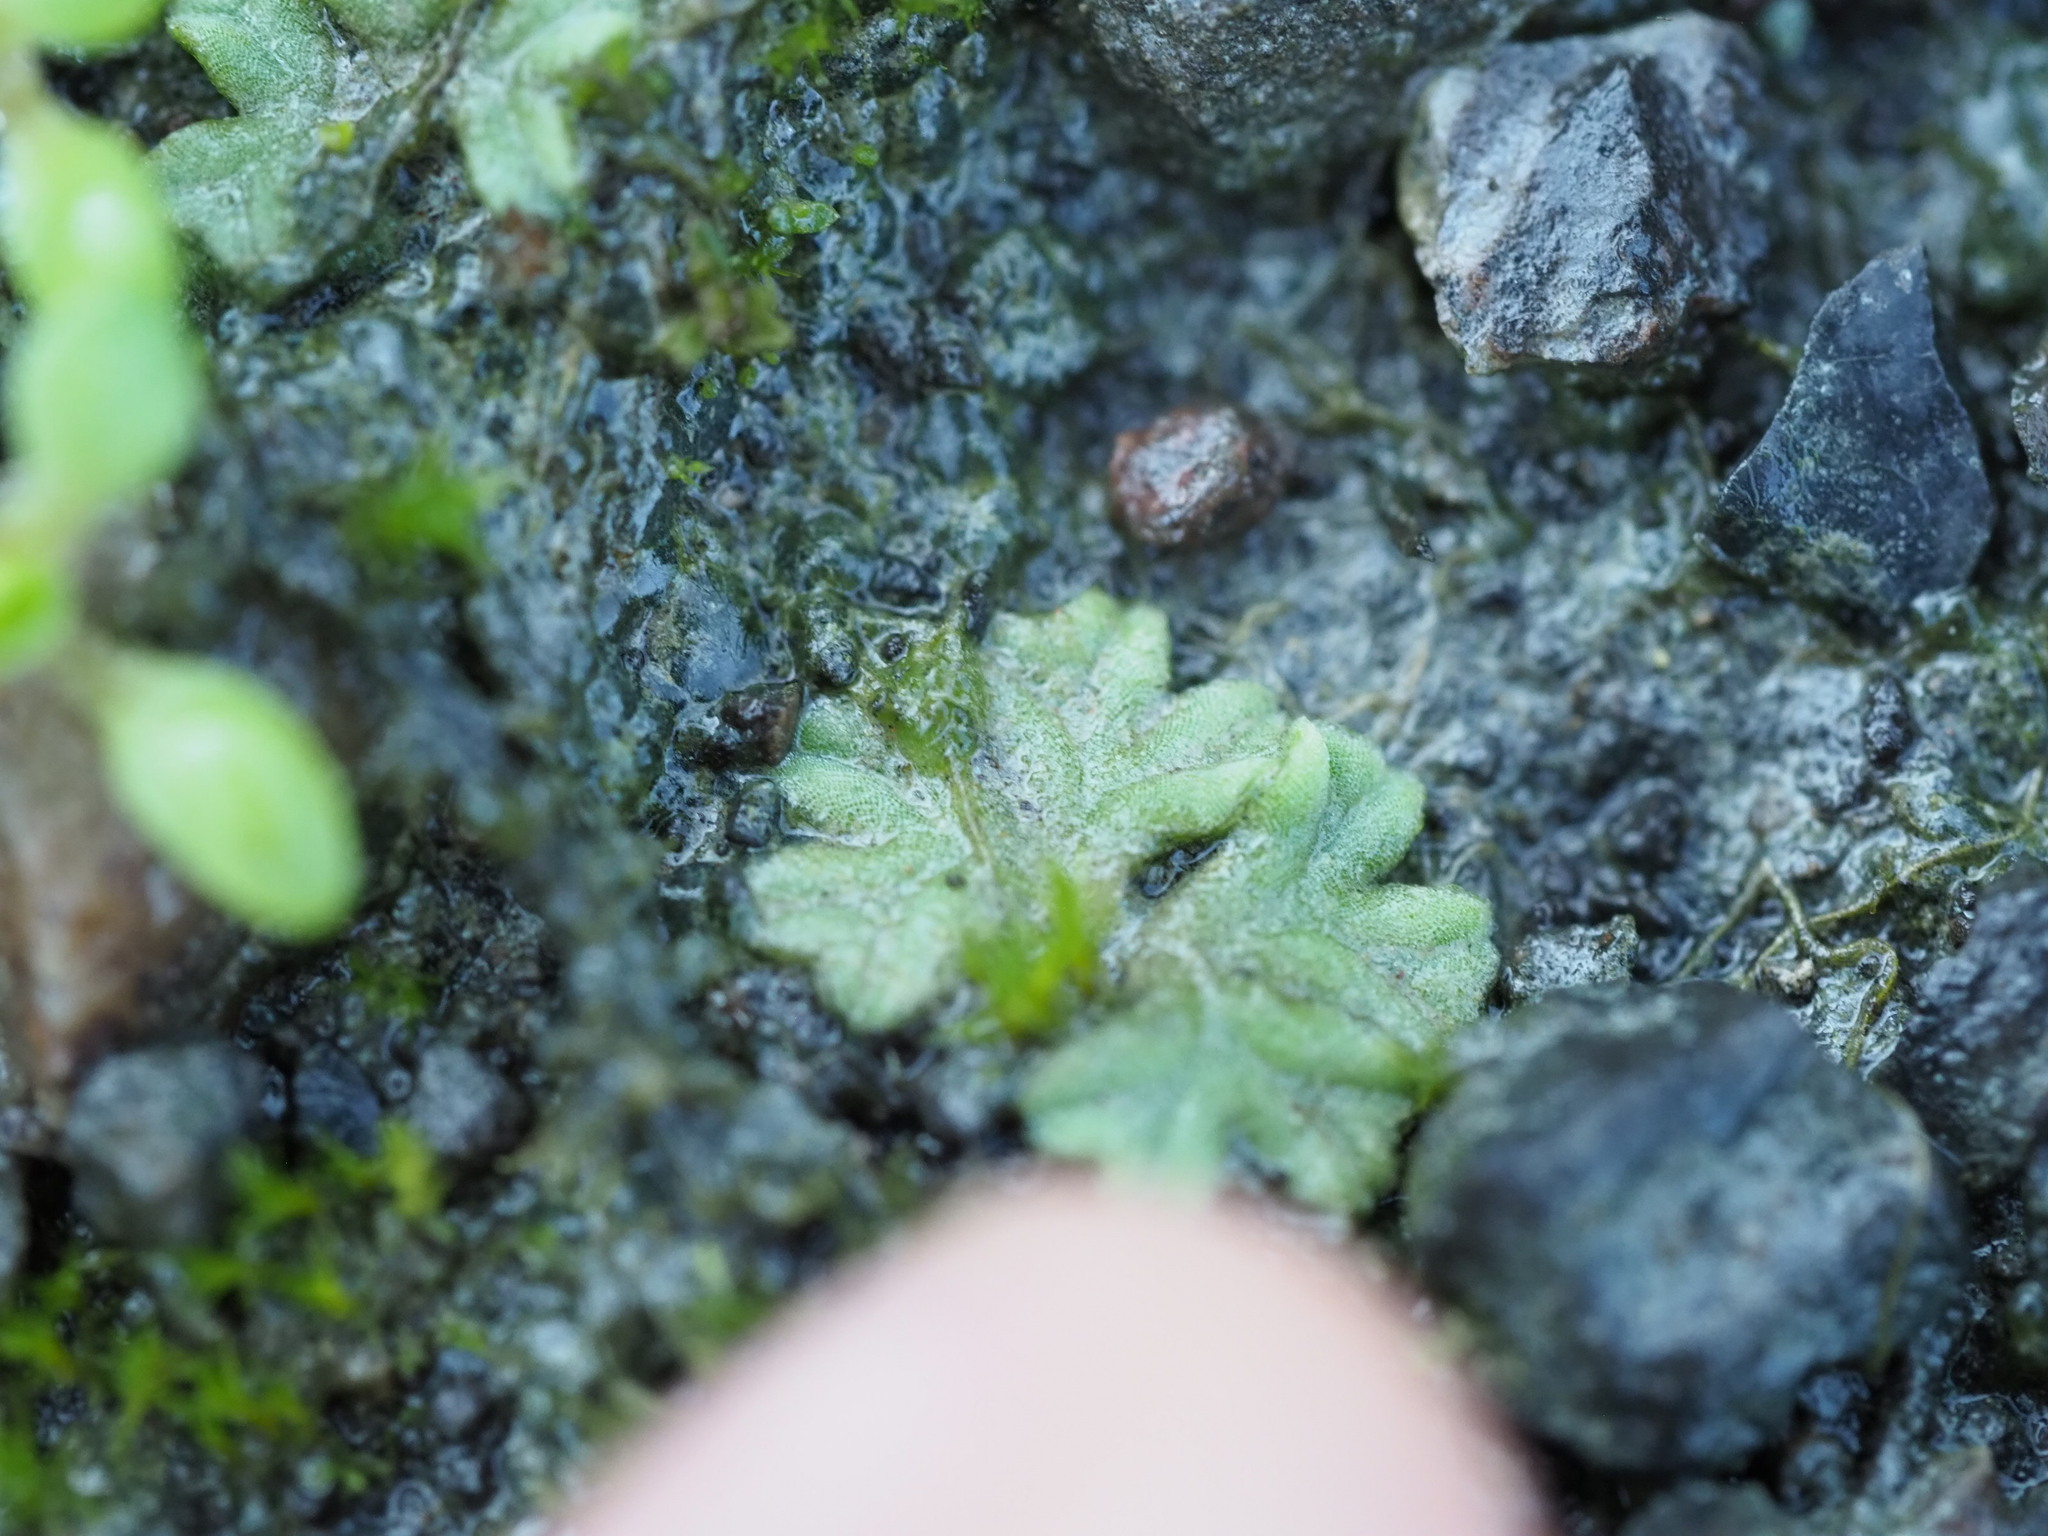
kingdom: Plantae
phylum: Marchantiophyta
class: Marchantiopsida
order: Marchantiales
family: Ricciaceae
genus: Riccia
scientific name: Riccia sorocarpa
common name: Common crystalwort
